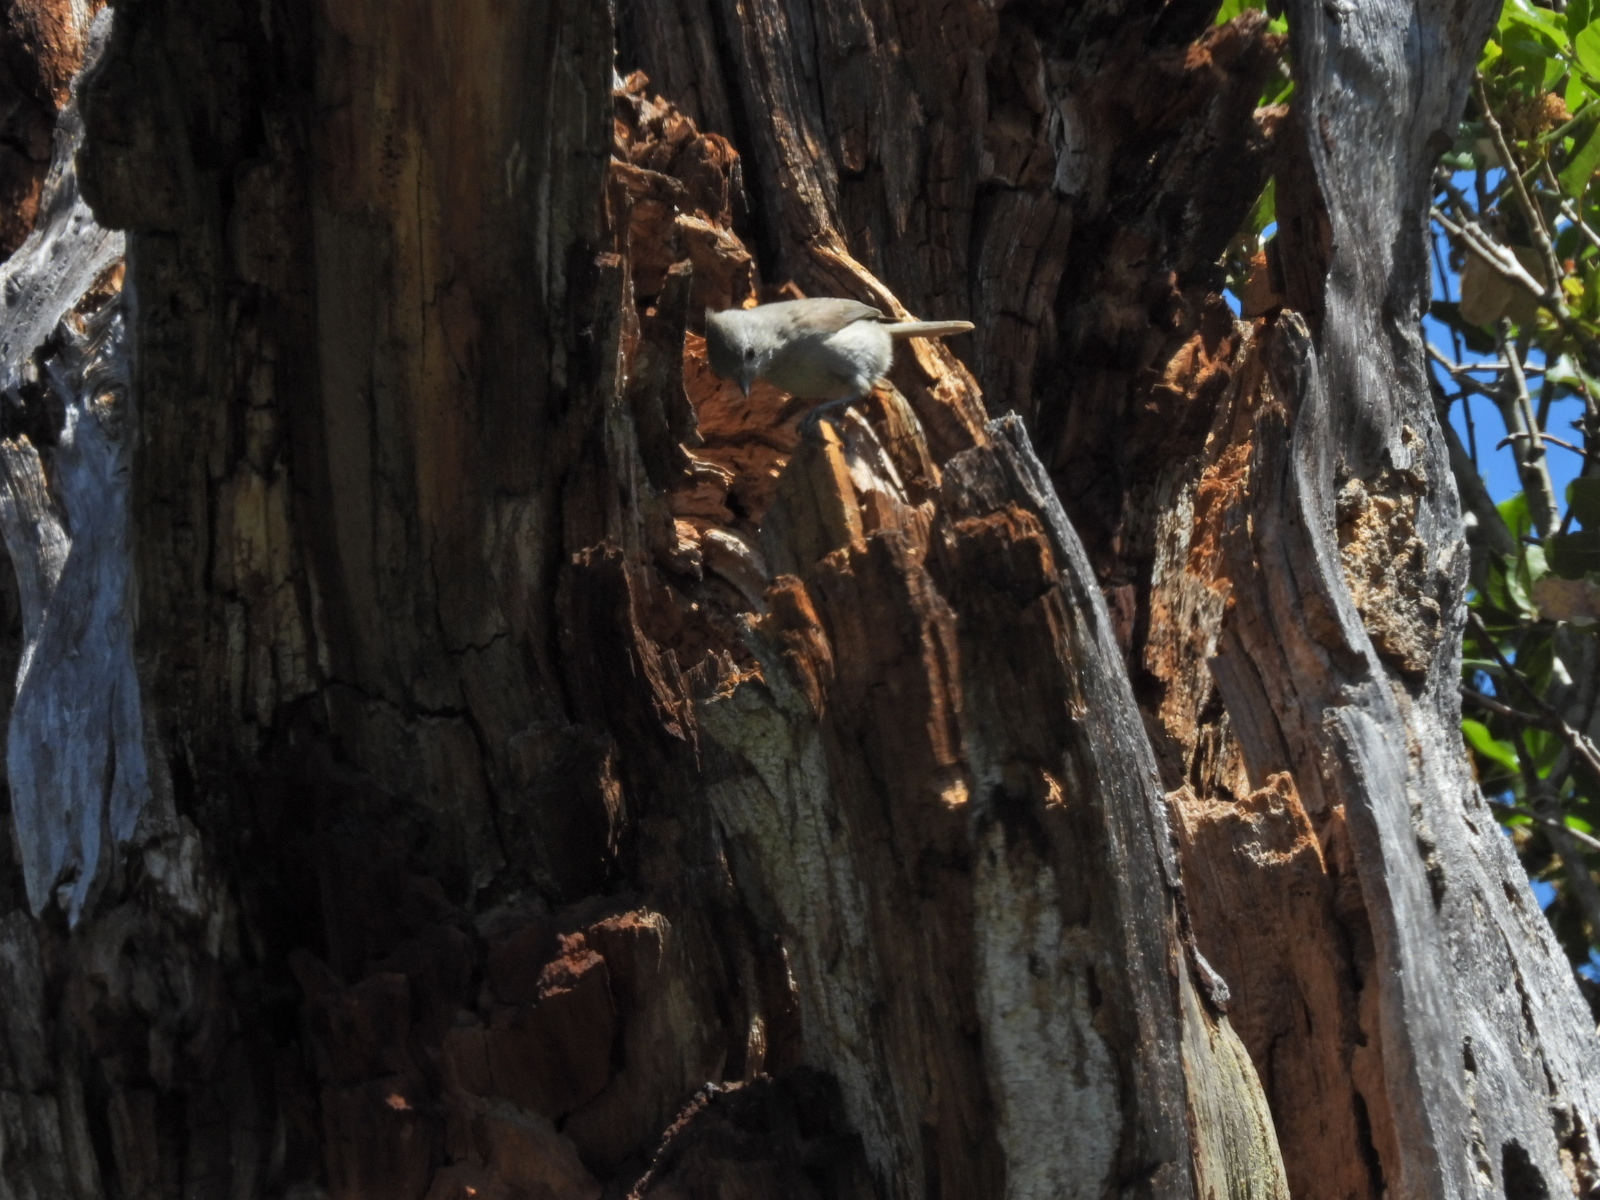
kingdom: Animalia
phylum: Chordata
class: Aves
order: Passeriformes
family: Paridae
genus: Baeolophus
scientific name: Baeolophus inornatus
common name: Oak titmouse
